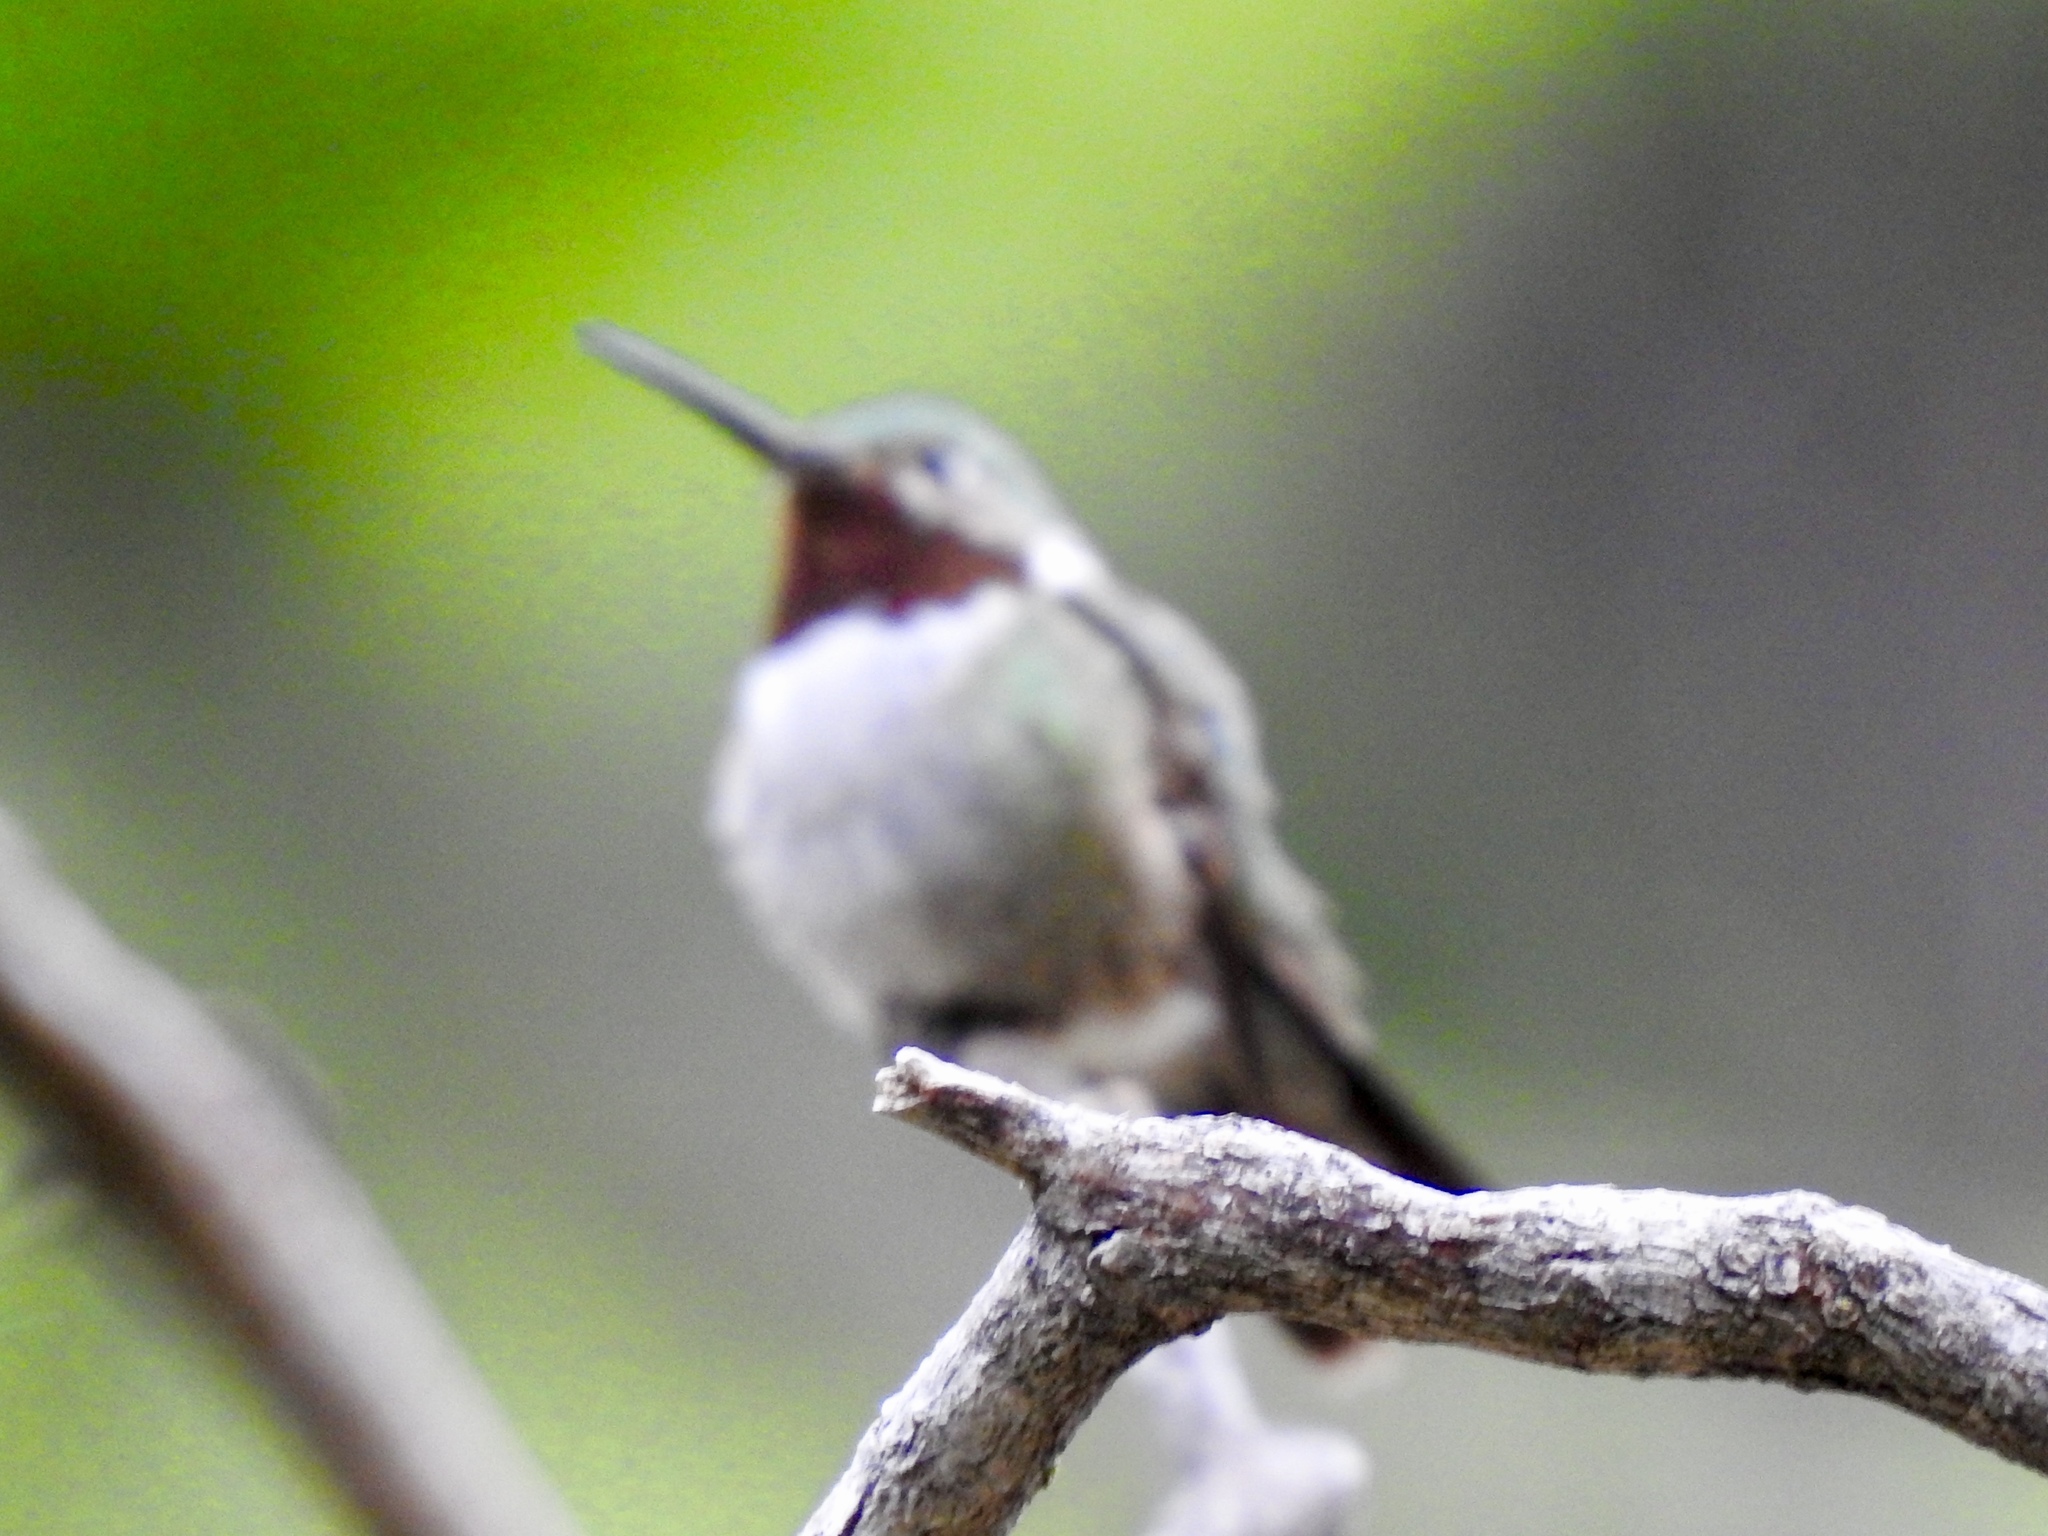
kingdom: Animalia
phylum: Chordata
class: Aves
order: Apodiformes
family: Trochilidae
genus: Selasphorus
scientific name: Selasphorus platycercus
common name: Broad-tailed hummingbird
